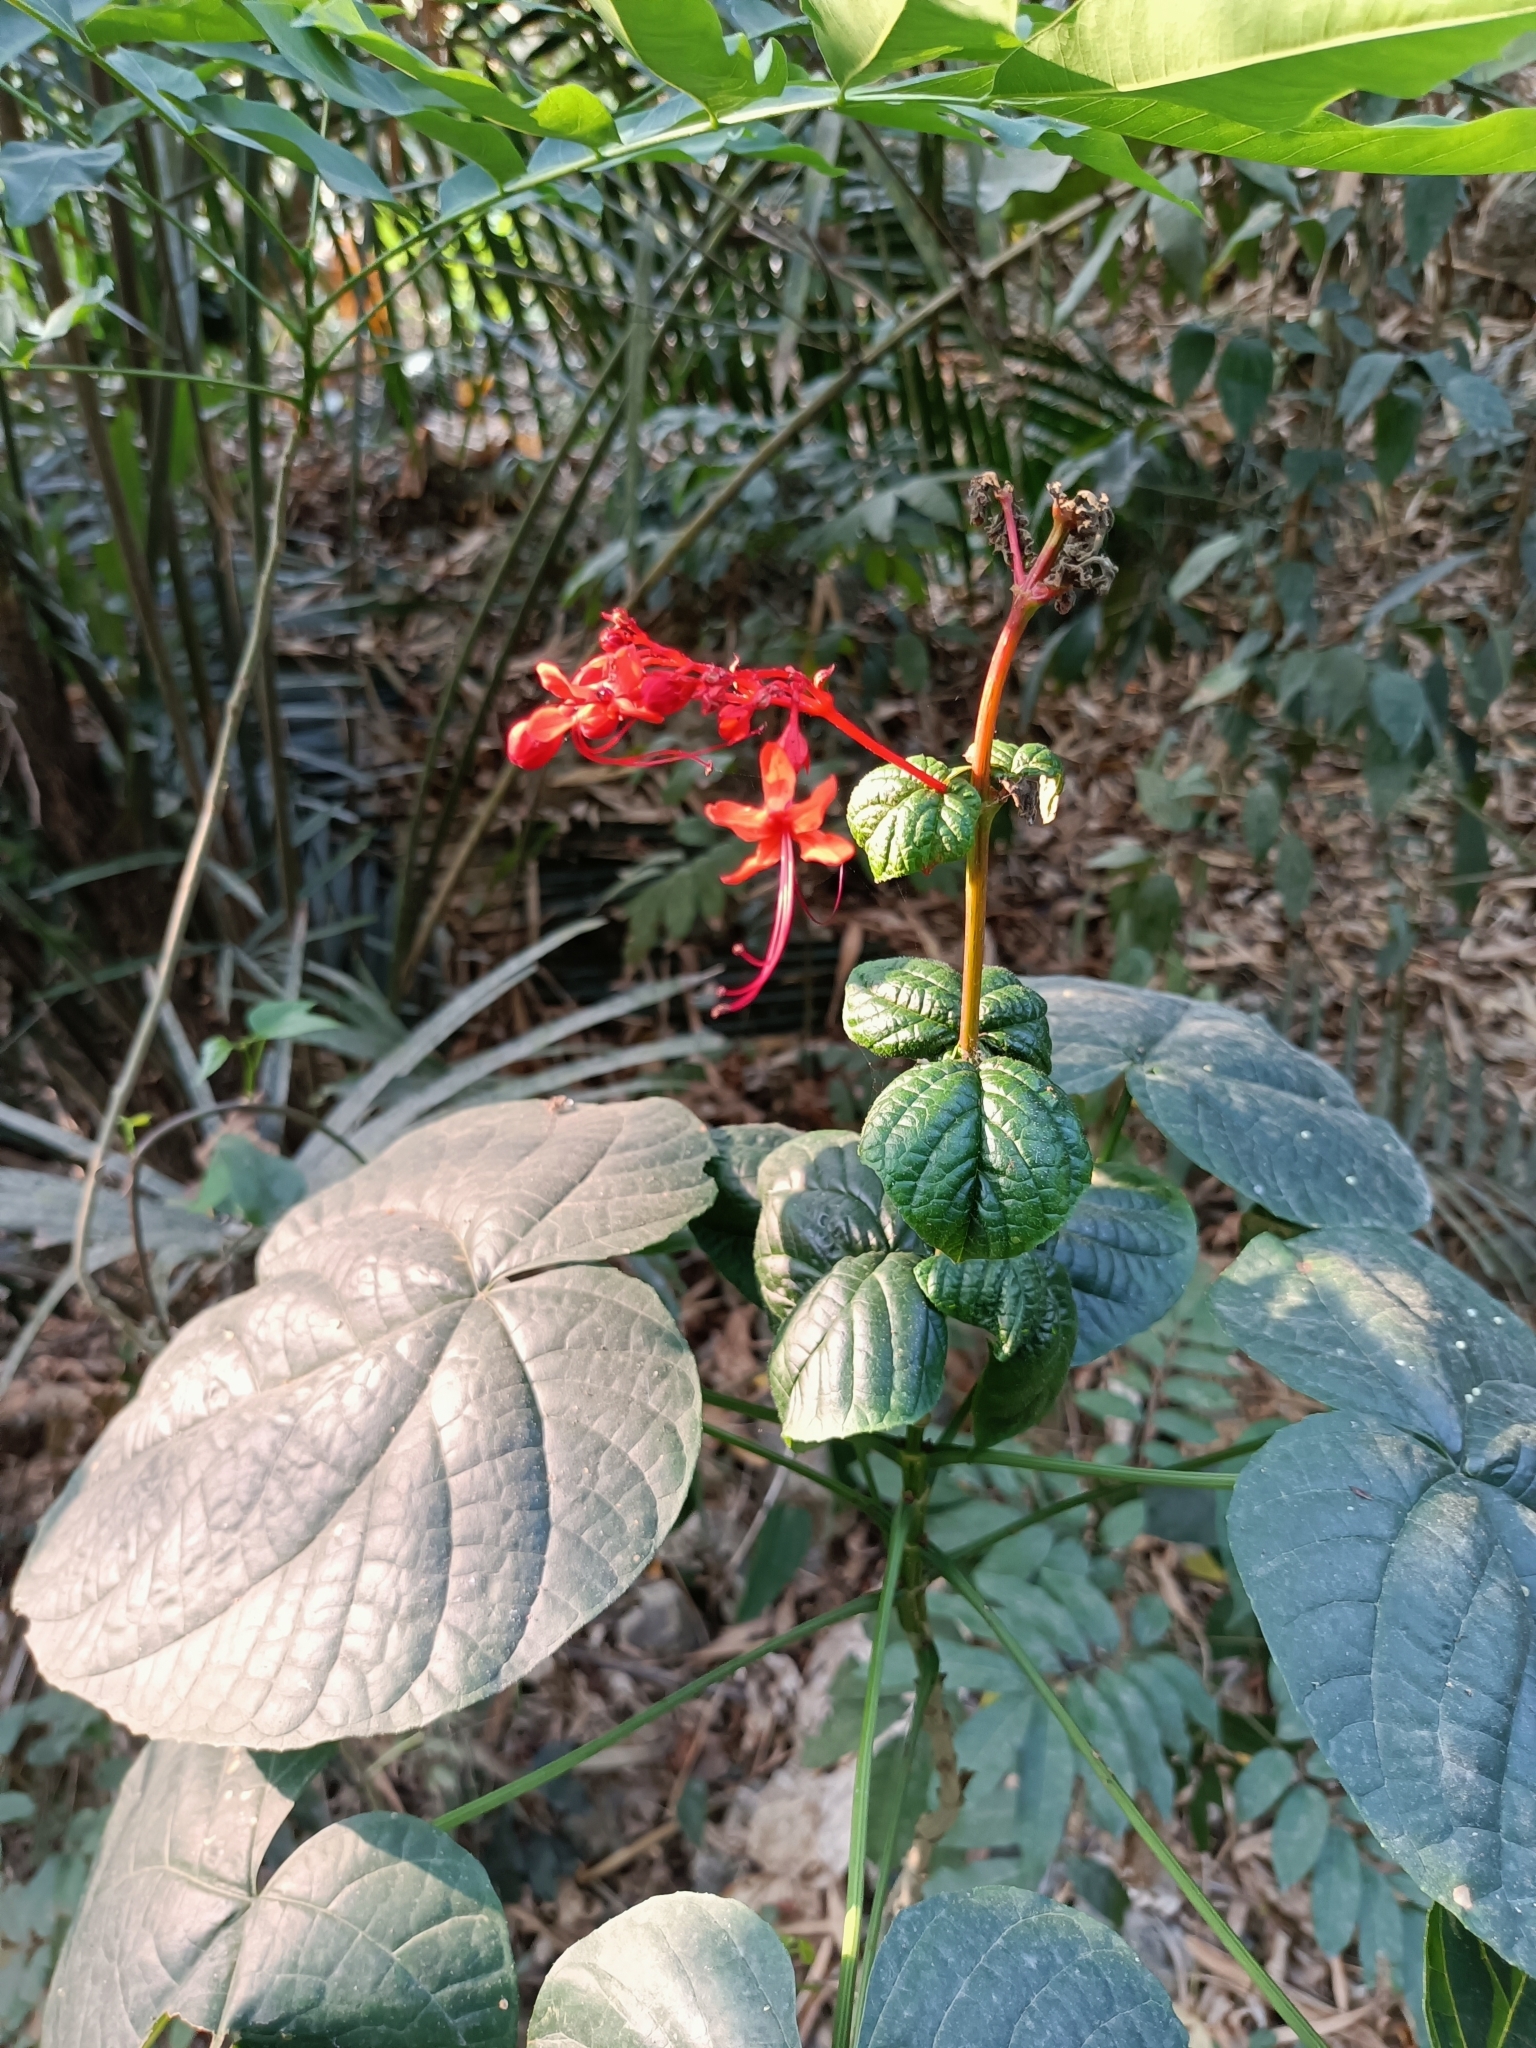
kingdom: Plantae
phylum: Tracheophyta
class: Magnoliopsida
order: Lamiales
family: Lamiaceae
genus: Clerodendrum
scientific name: Clerodendrum japonicum
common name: Japanese glorybower
